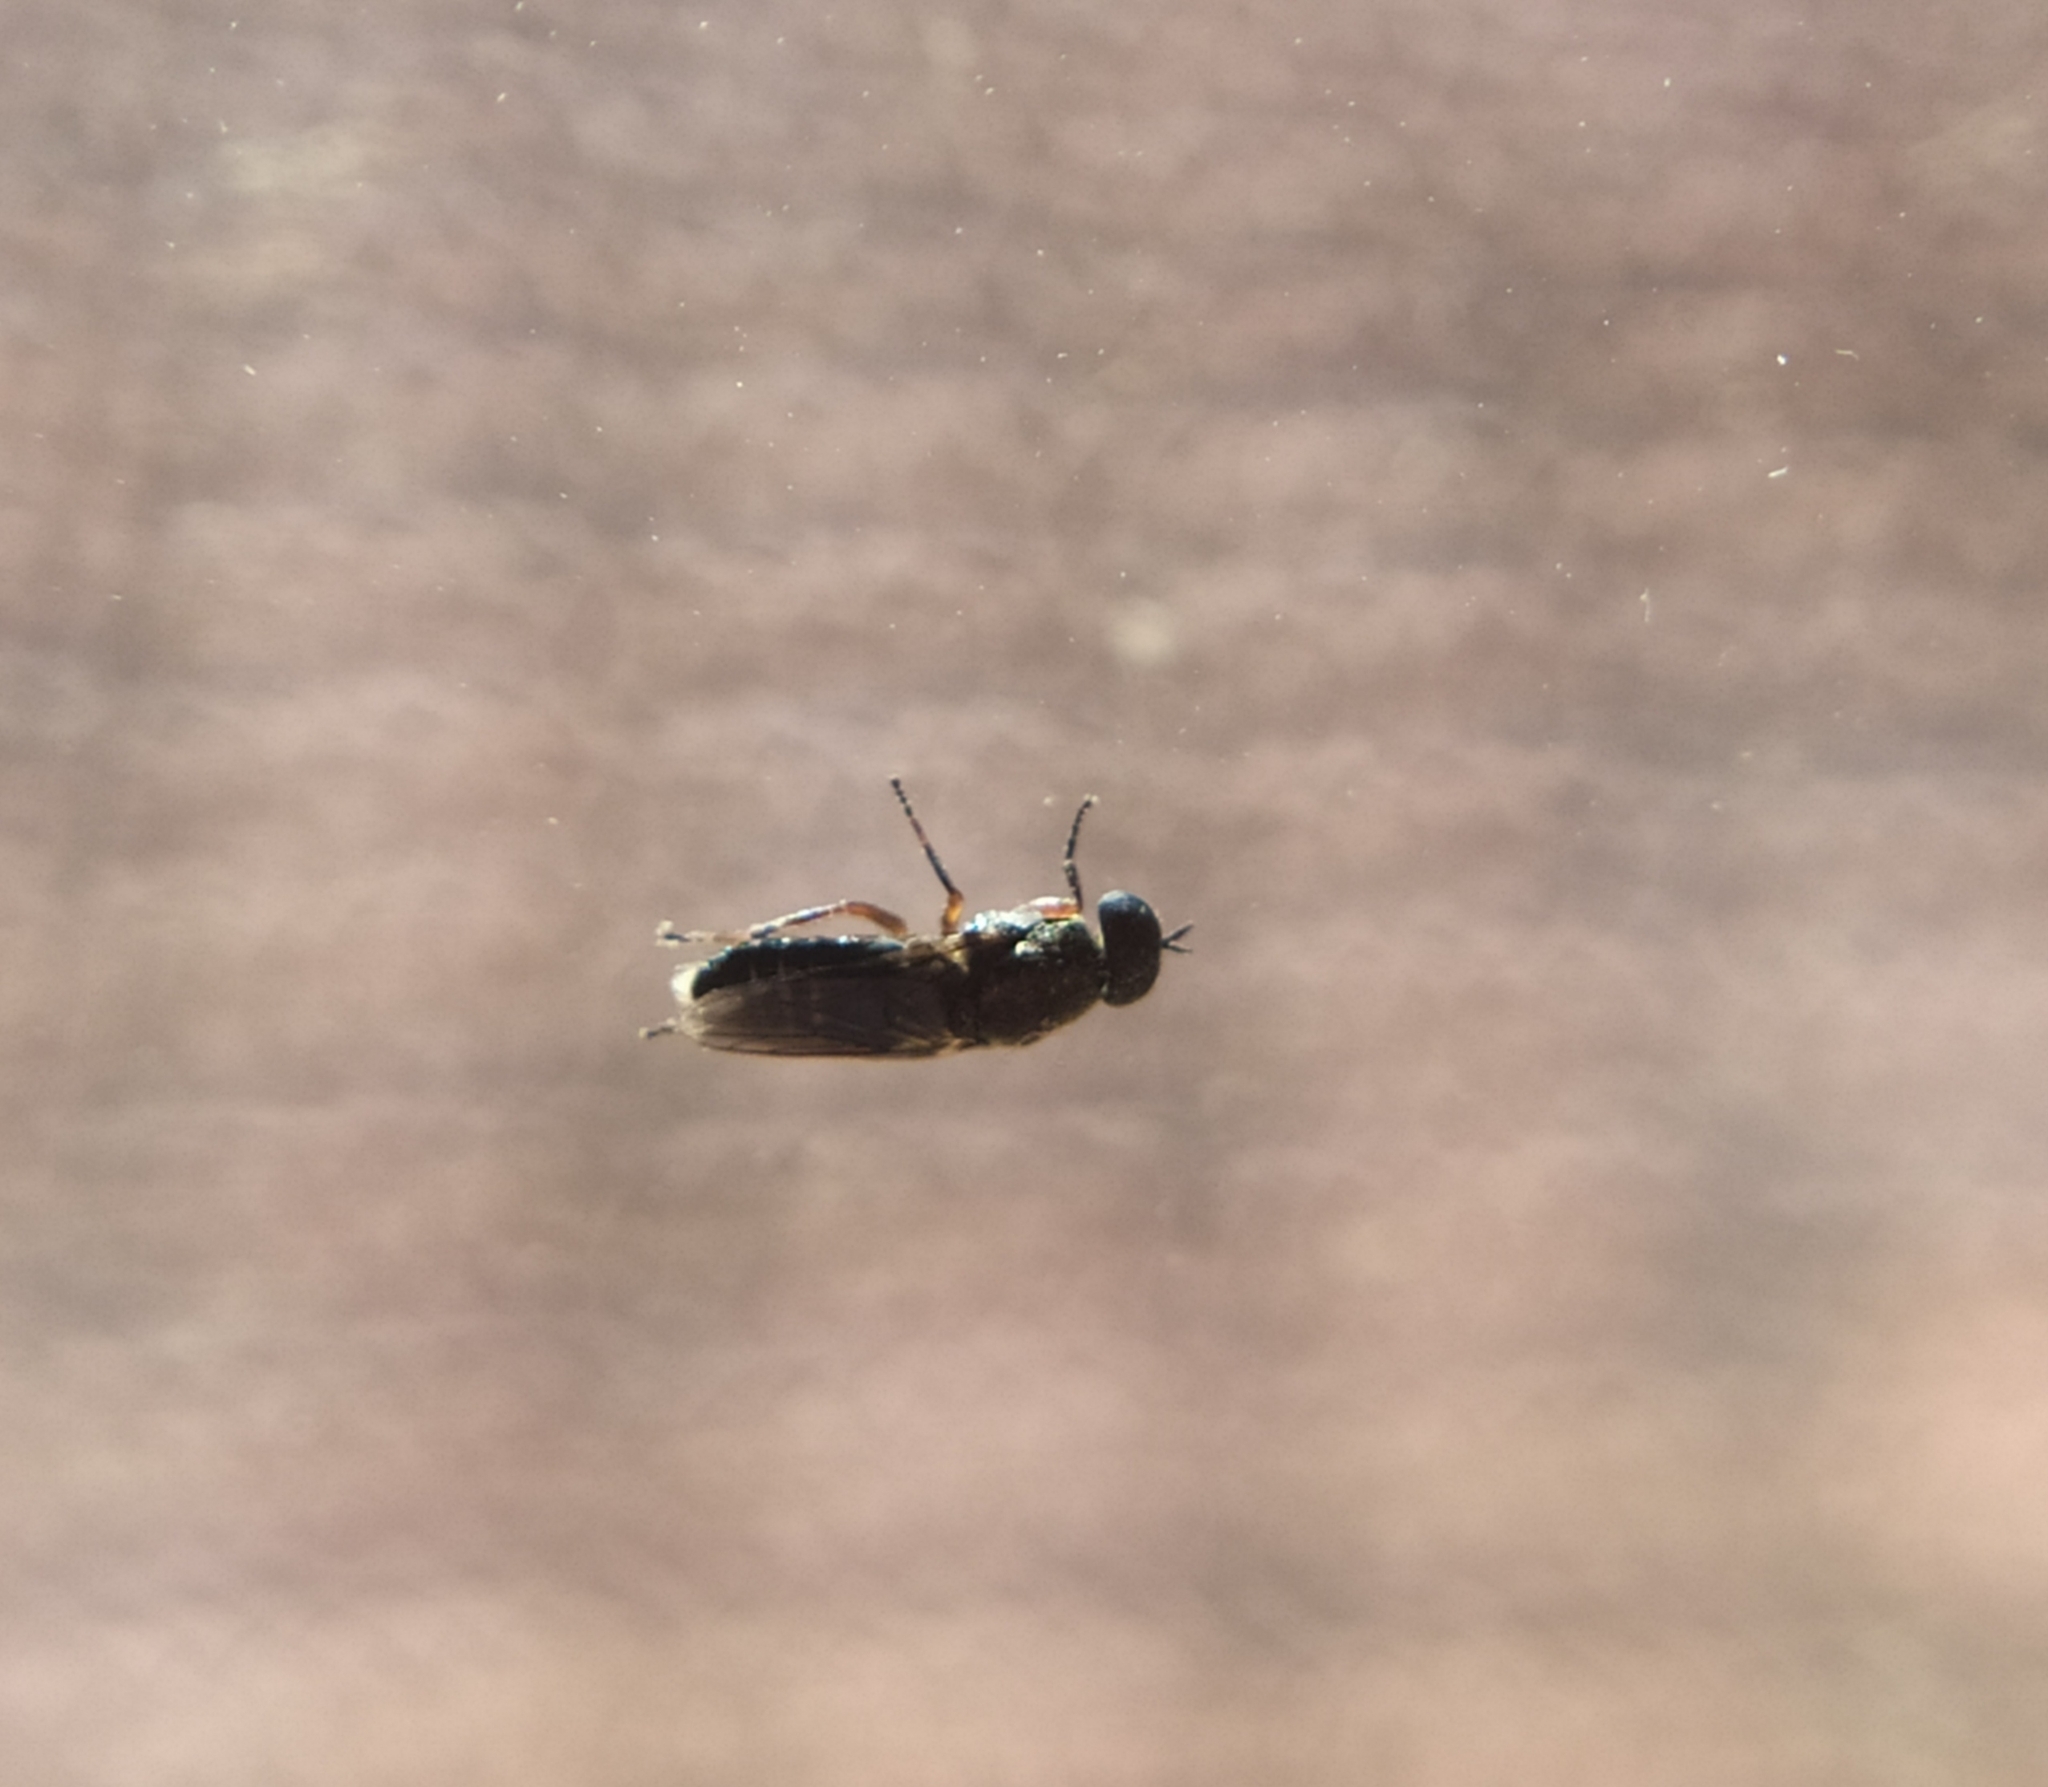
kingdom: Animalia
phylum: Arthropoda
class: Insecta
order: Diptera
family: Scenopinidae
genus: Scenopinus
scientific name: Scenopinus fenestralis
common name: House windowfly
